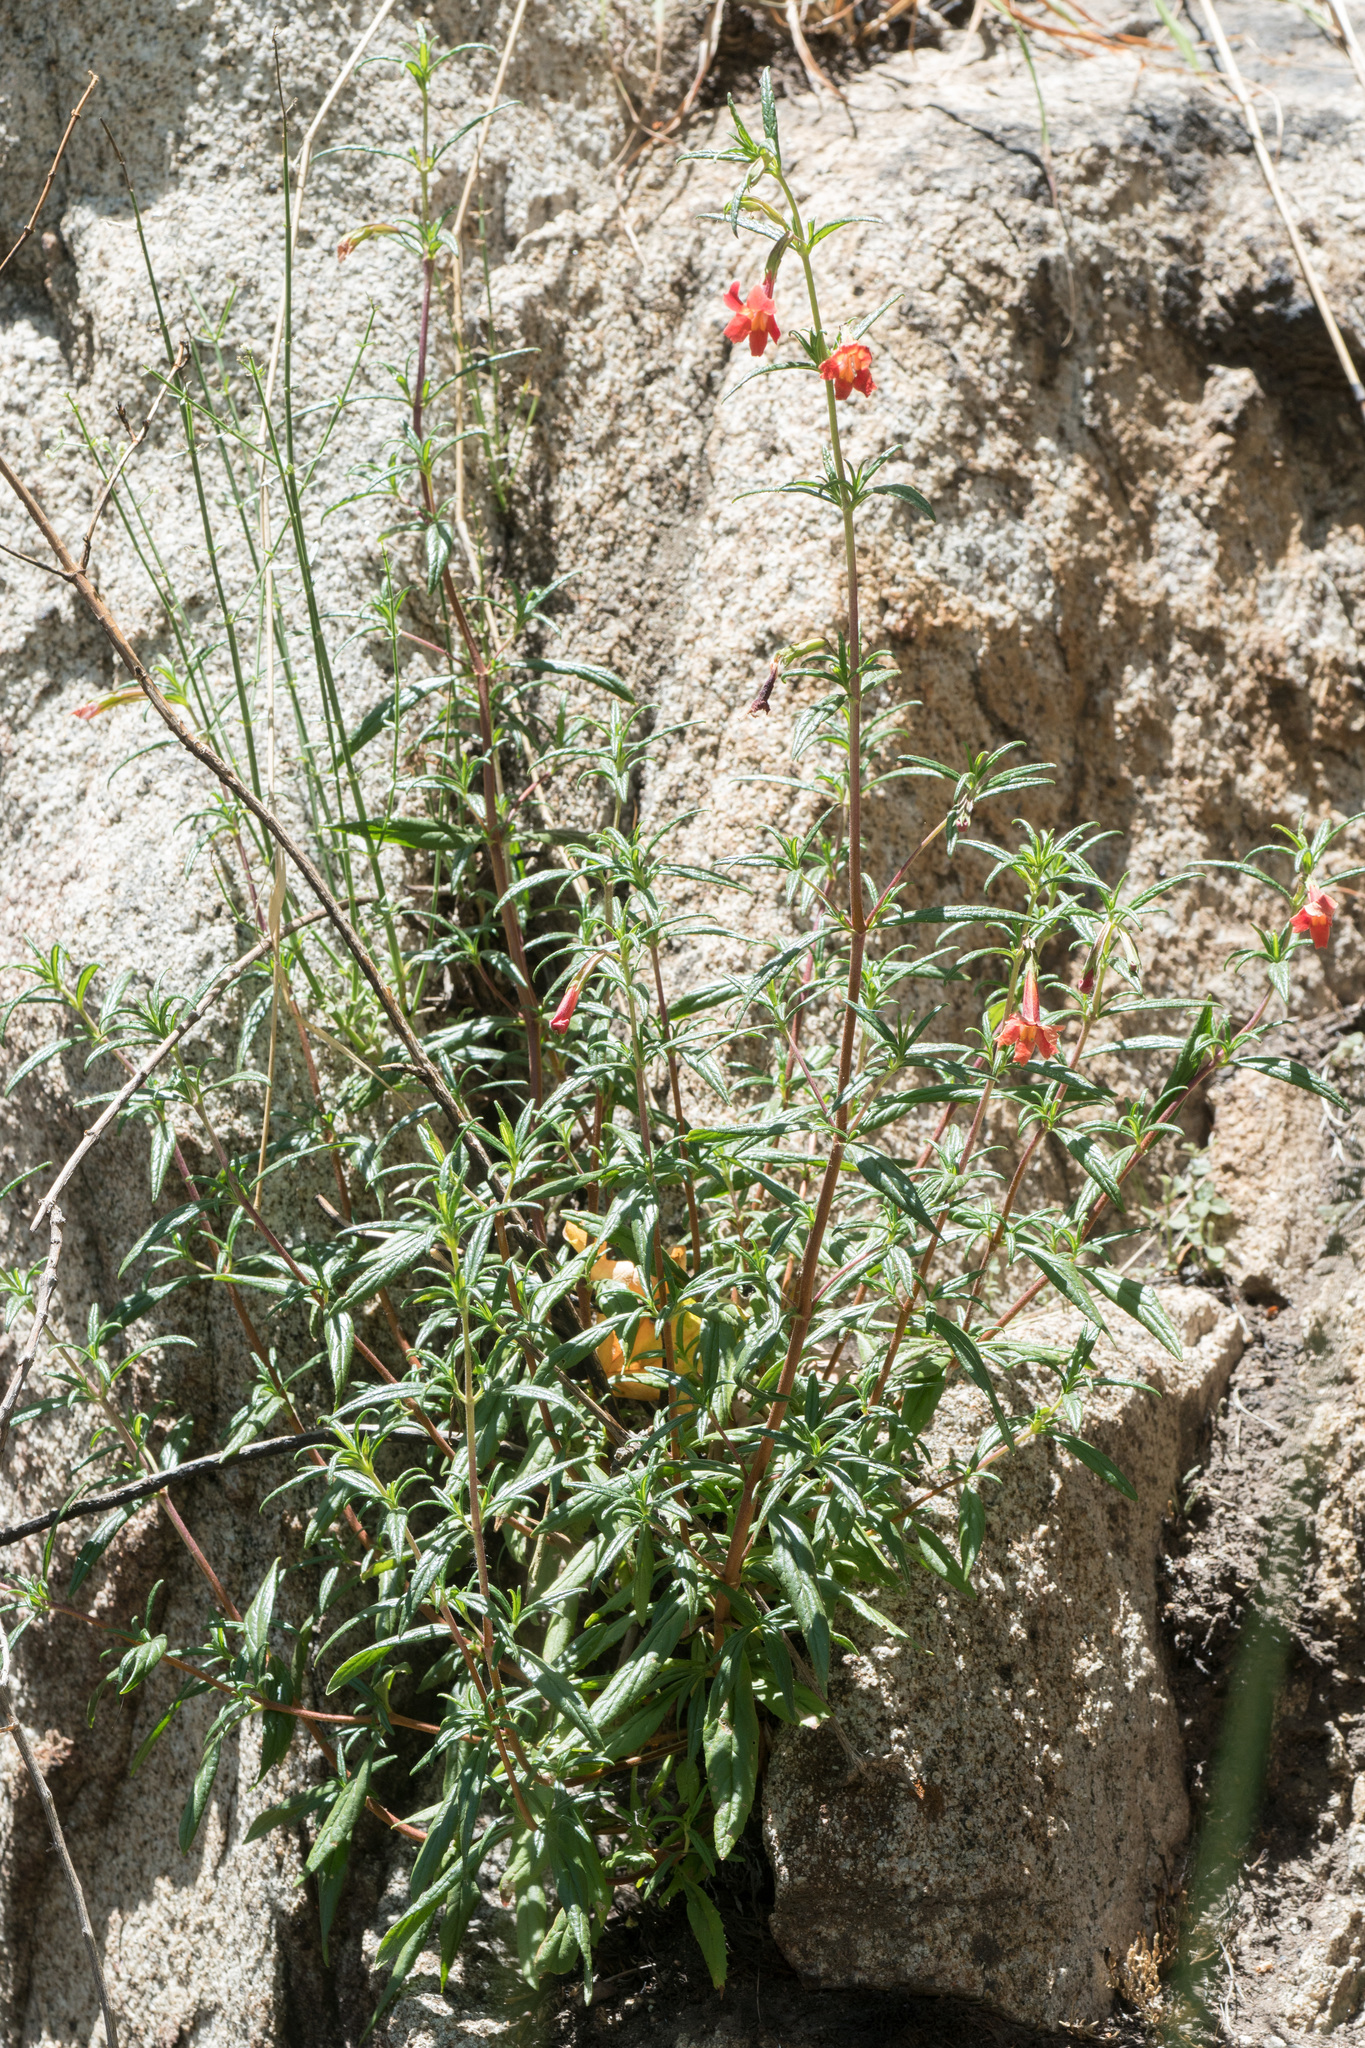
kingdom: Plantae
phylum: Tracheophyta
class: Magnoliopsida
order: Lamiales
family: Phrymaceae
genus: Diplacus
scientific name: Diplacus puniceus
